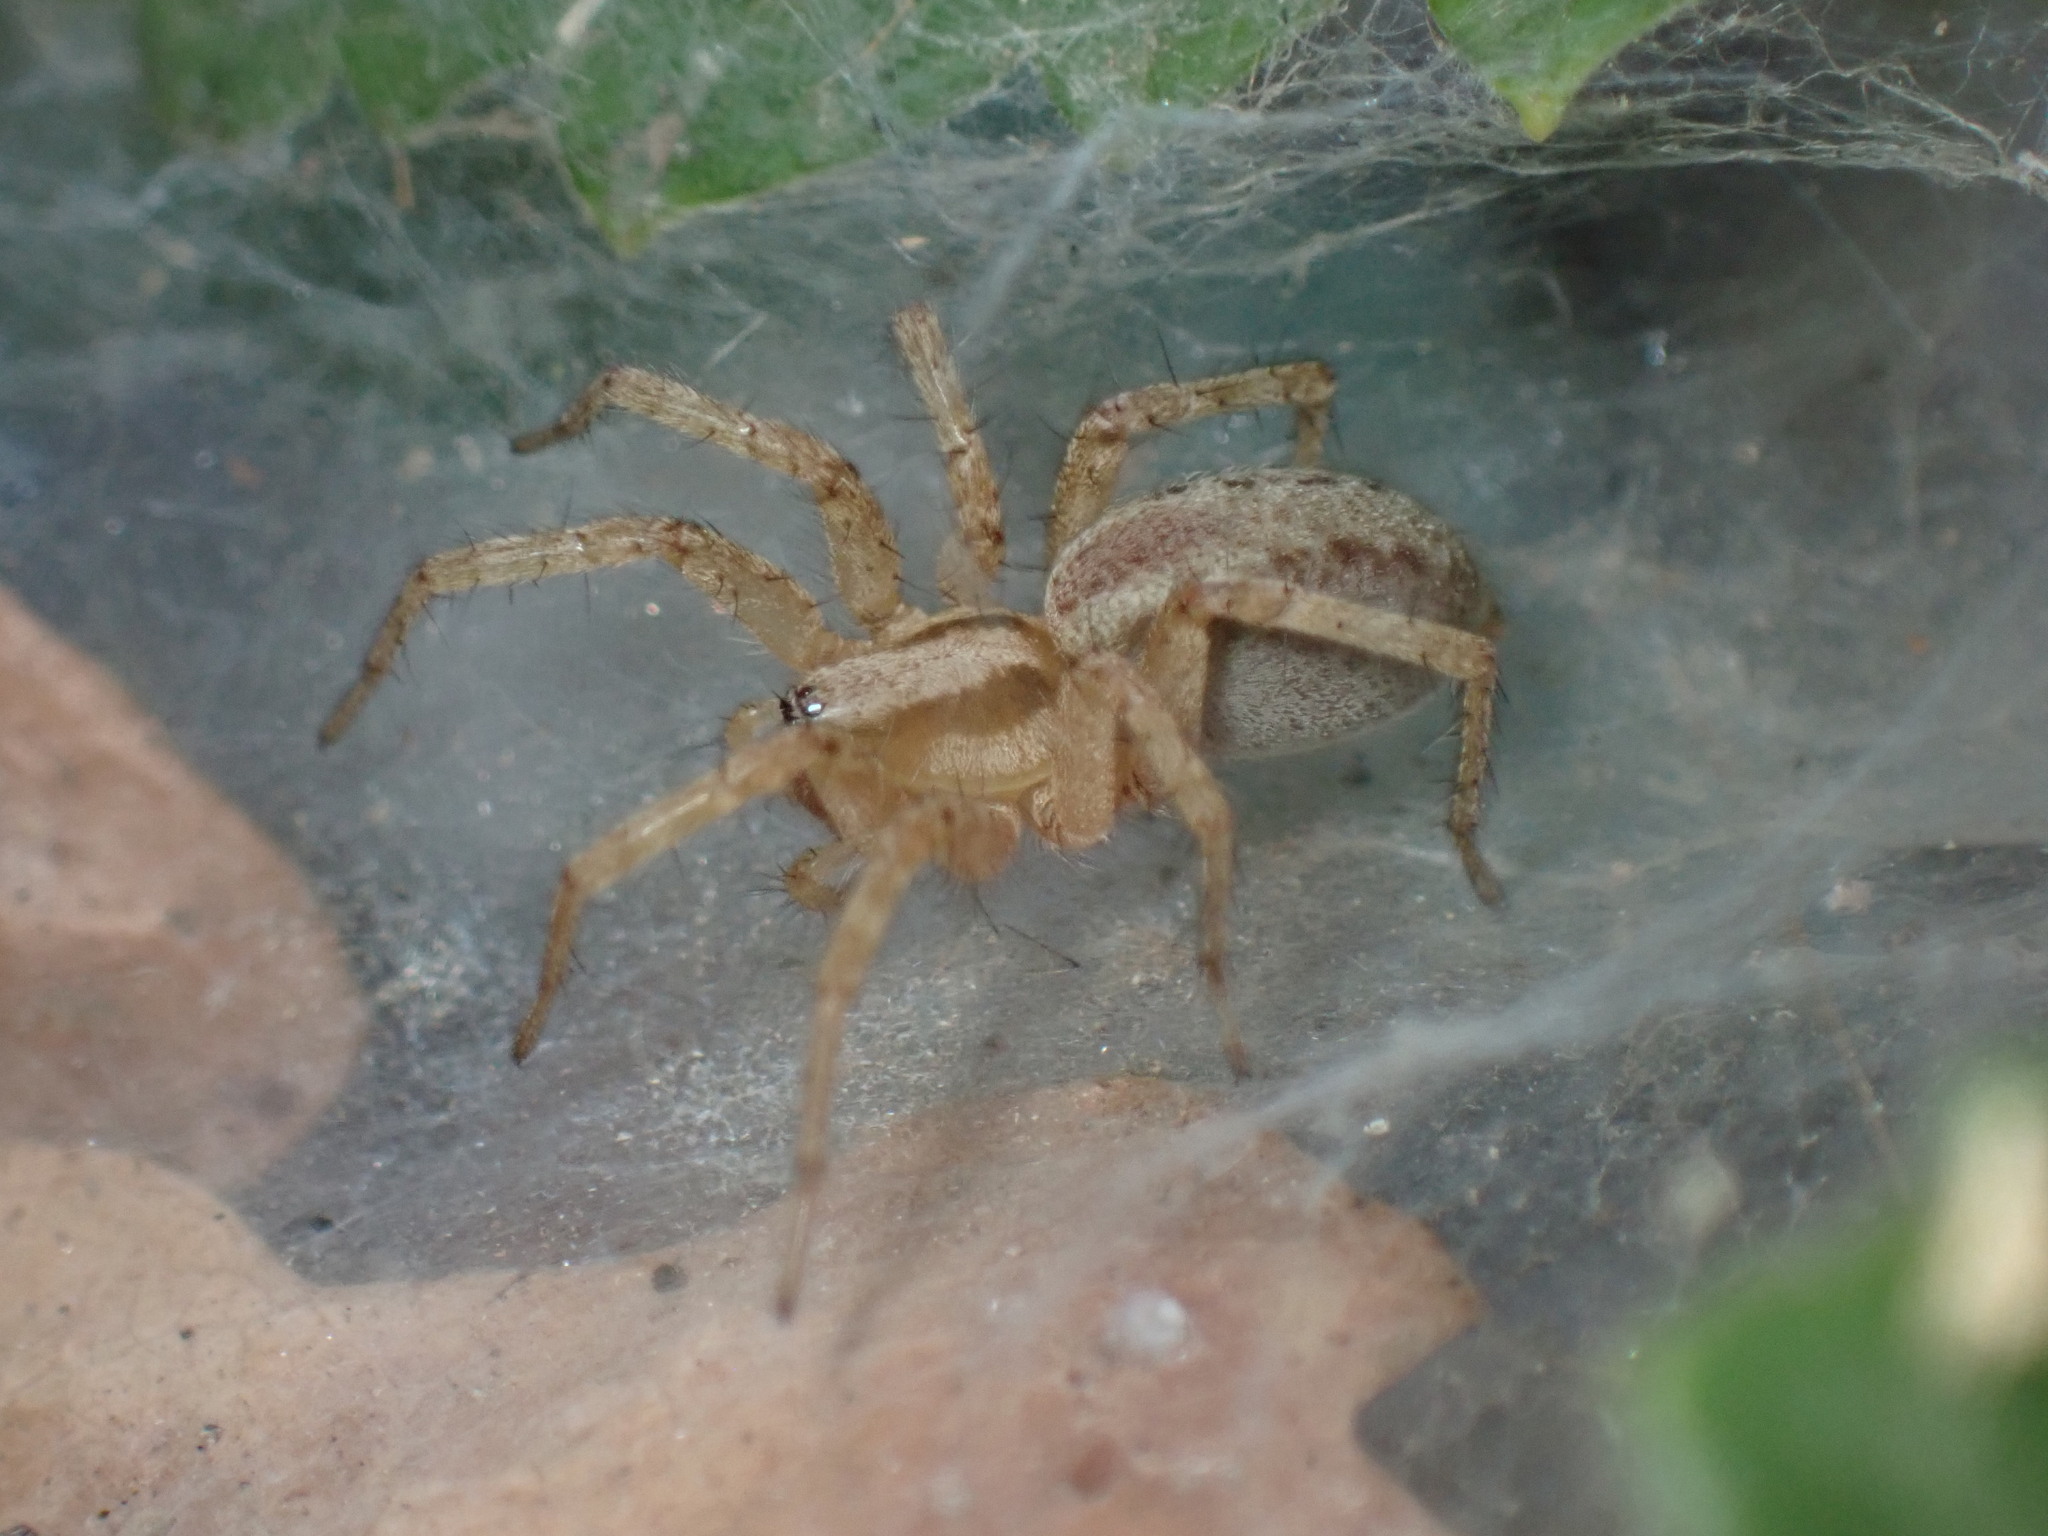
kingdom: Animalia
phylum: Arthropoda
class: Arachnida
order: Araneae
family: Agelenidae
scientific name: Agelenidae
